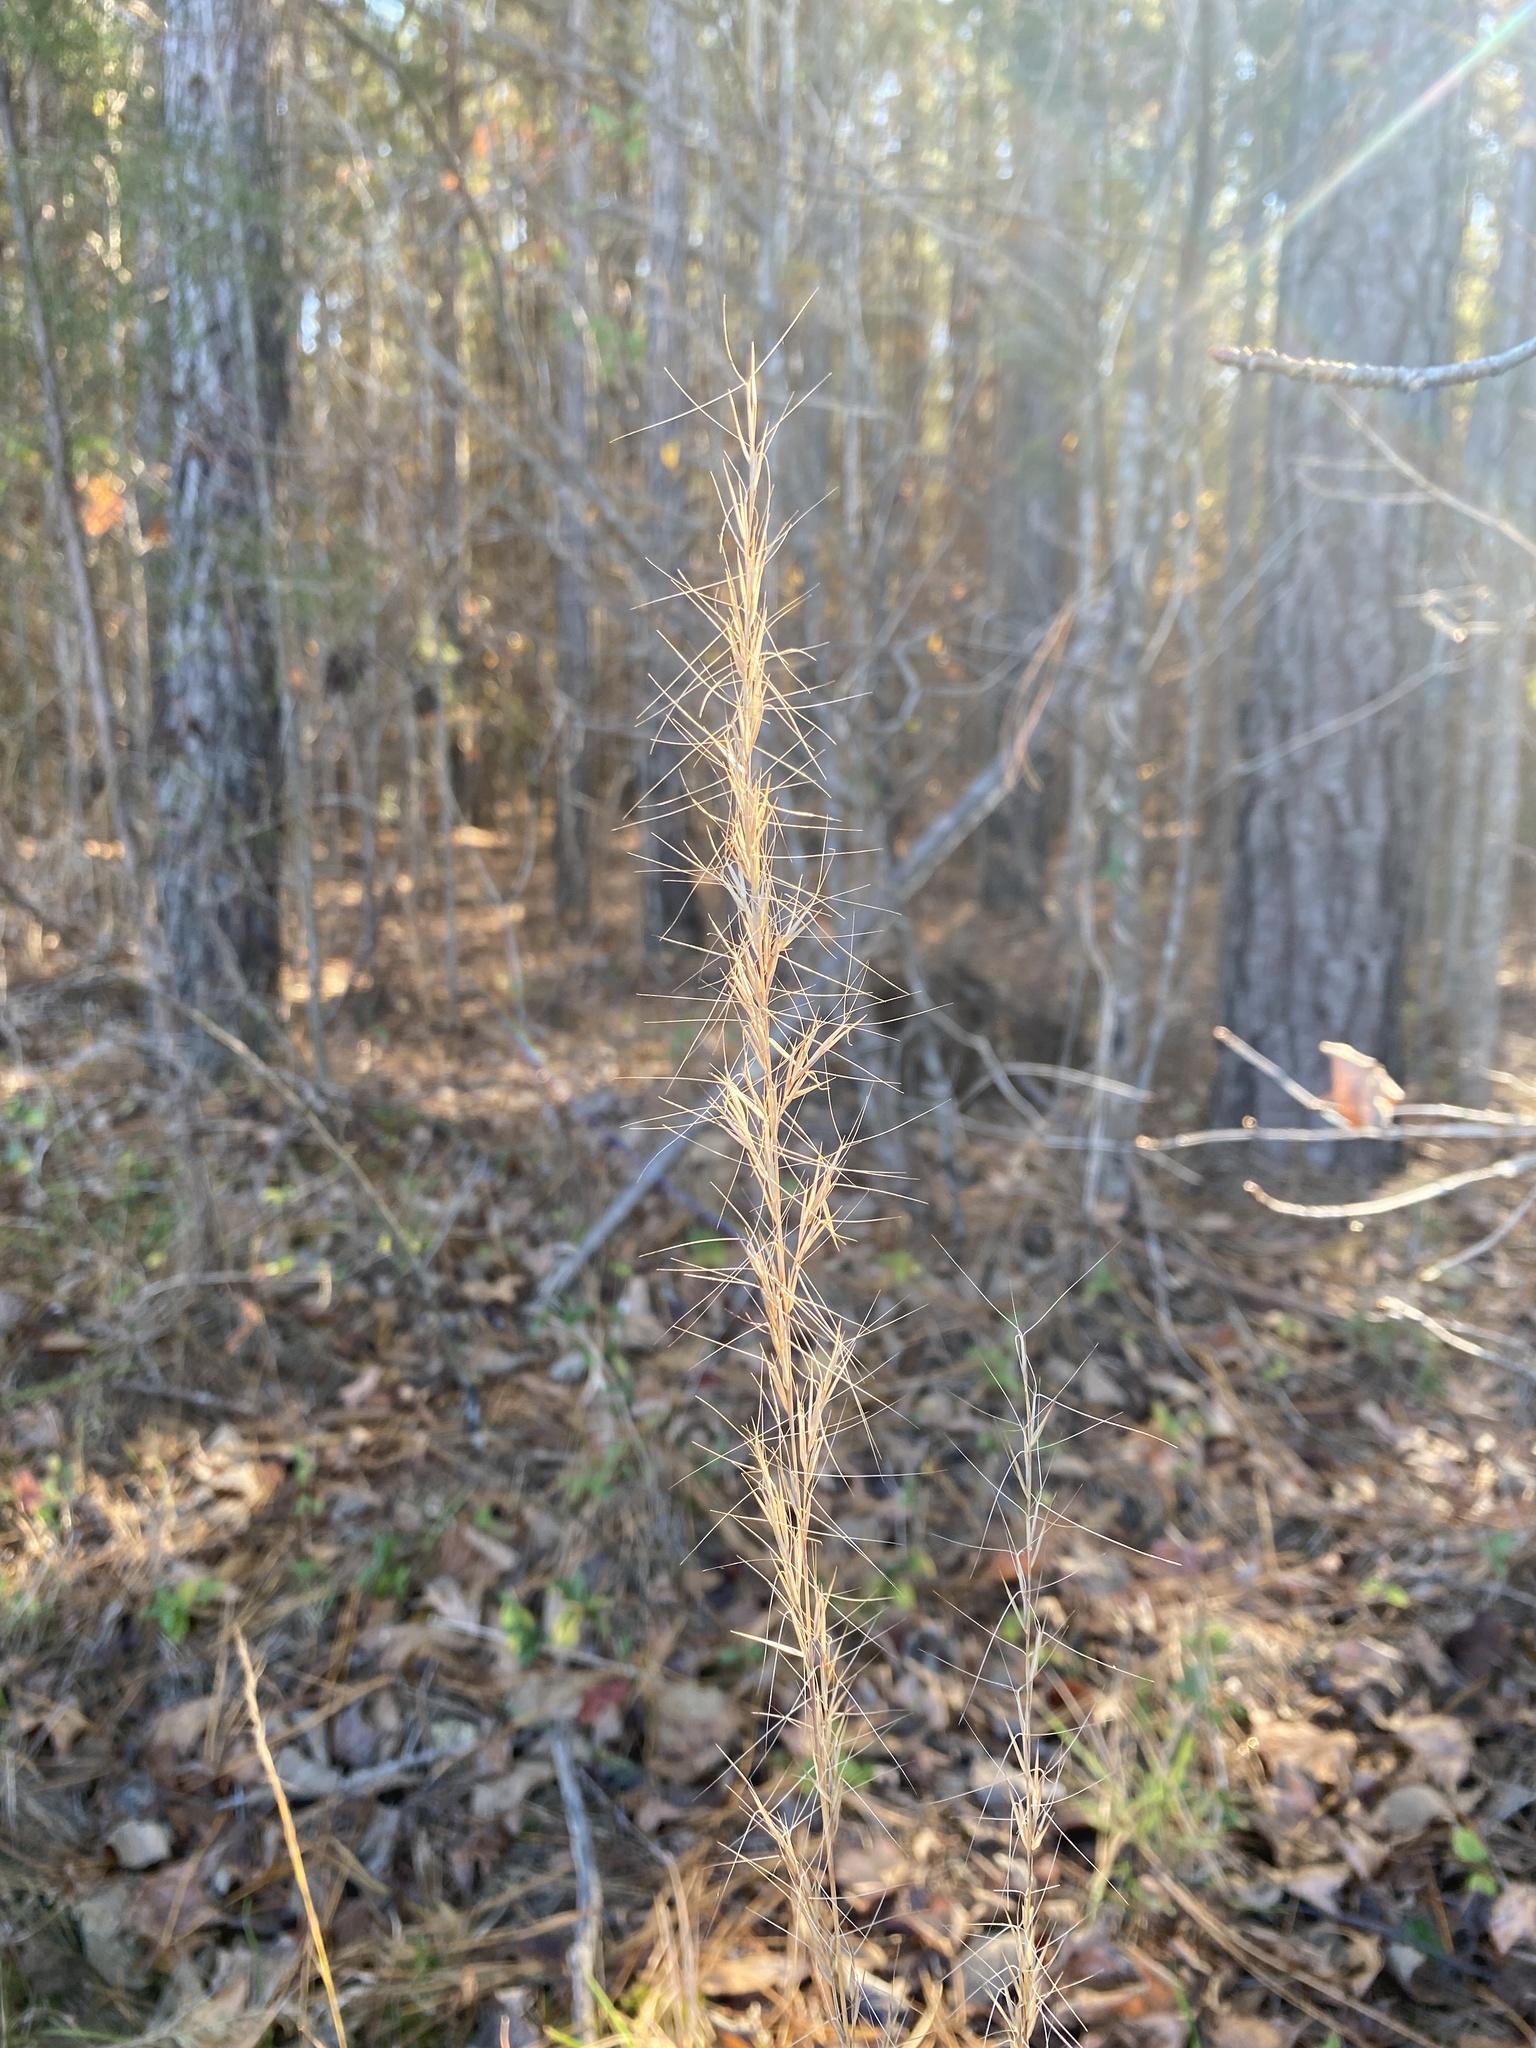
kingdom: Plantae
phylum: Tracheophyta
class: Liliopsida
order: Poales
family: Poaceae
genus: Aristida
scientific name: Aristida purpurascens
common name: Arrow-feather
